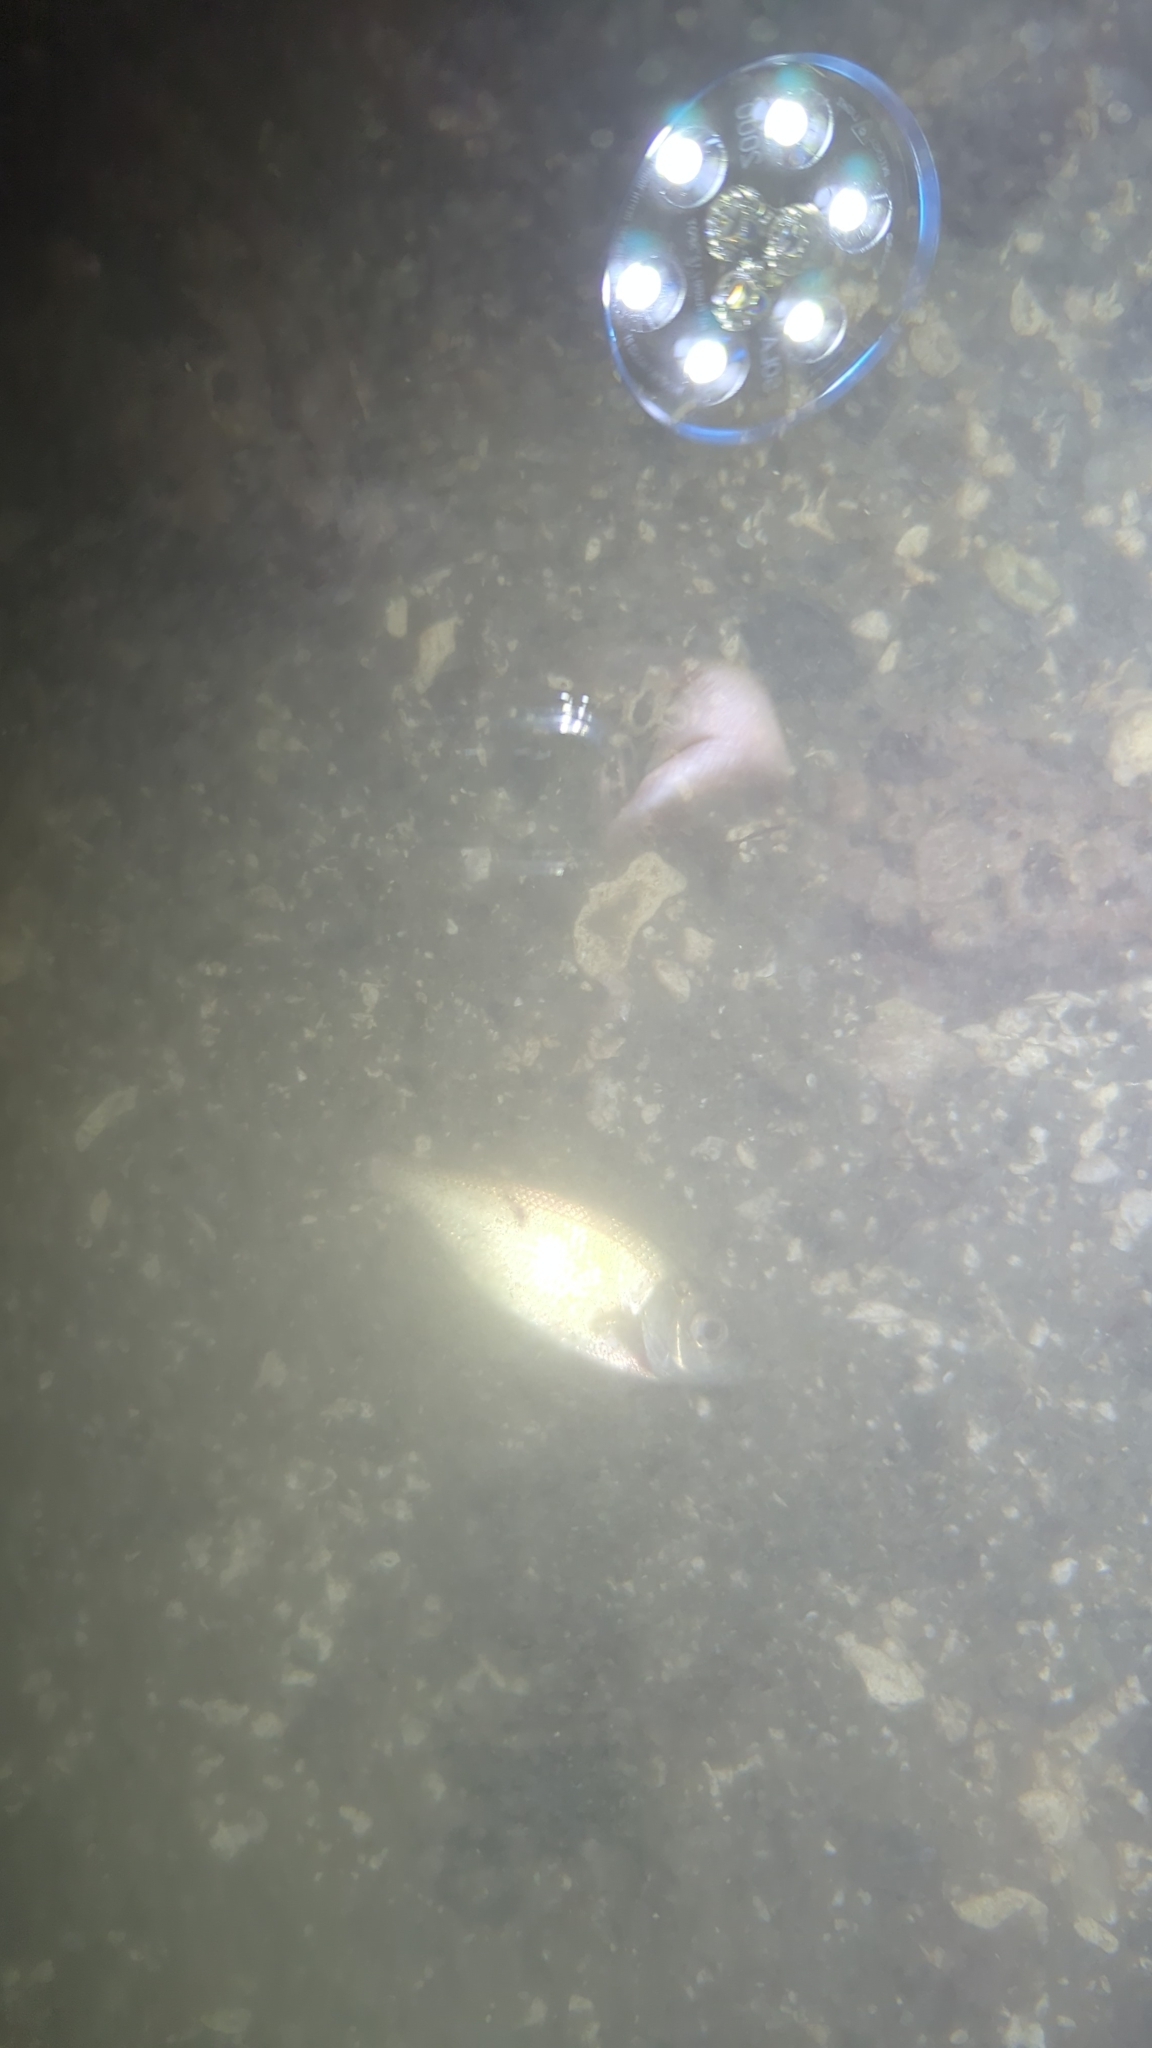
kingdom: Animalia
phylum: Chordata
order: Perciformes
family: Embiotocidae
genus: Cymatogaster
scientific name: Cymatogaster aggregata
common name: Shiner perch
